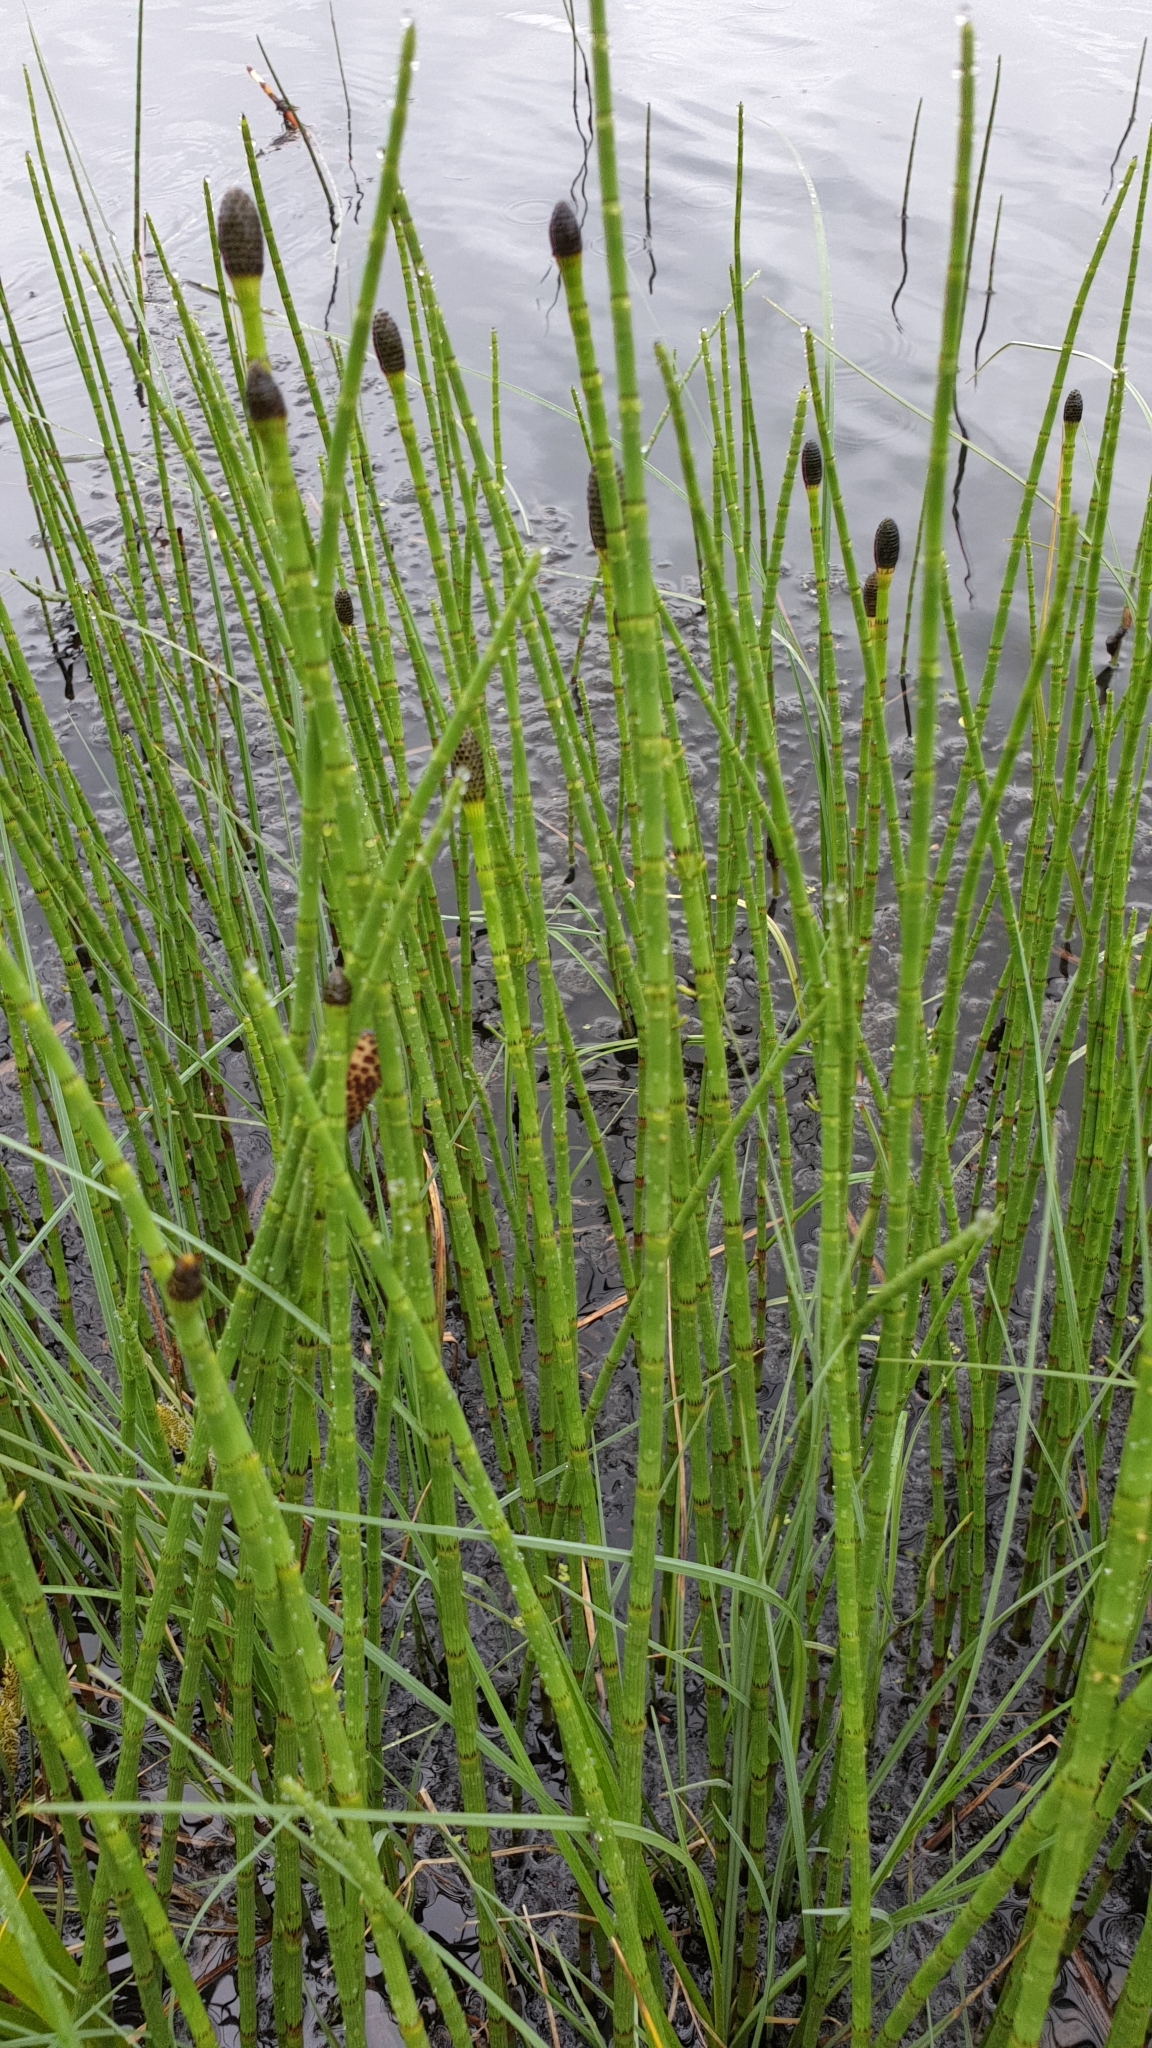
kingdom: Plantae
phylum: Tracheophyta
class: Polypodiopsida
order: Equisetales
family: Equisetaceae
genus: Equisetum
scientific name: Equisetum fluviatile
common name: Water horsetail
